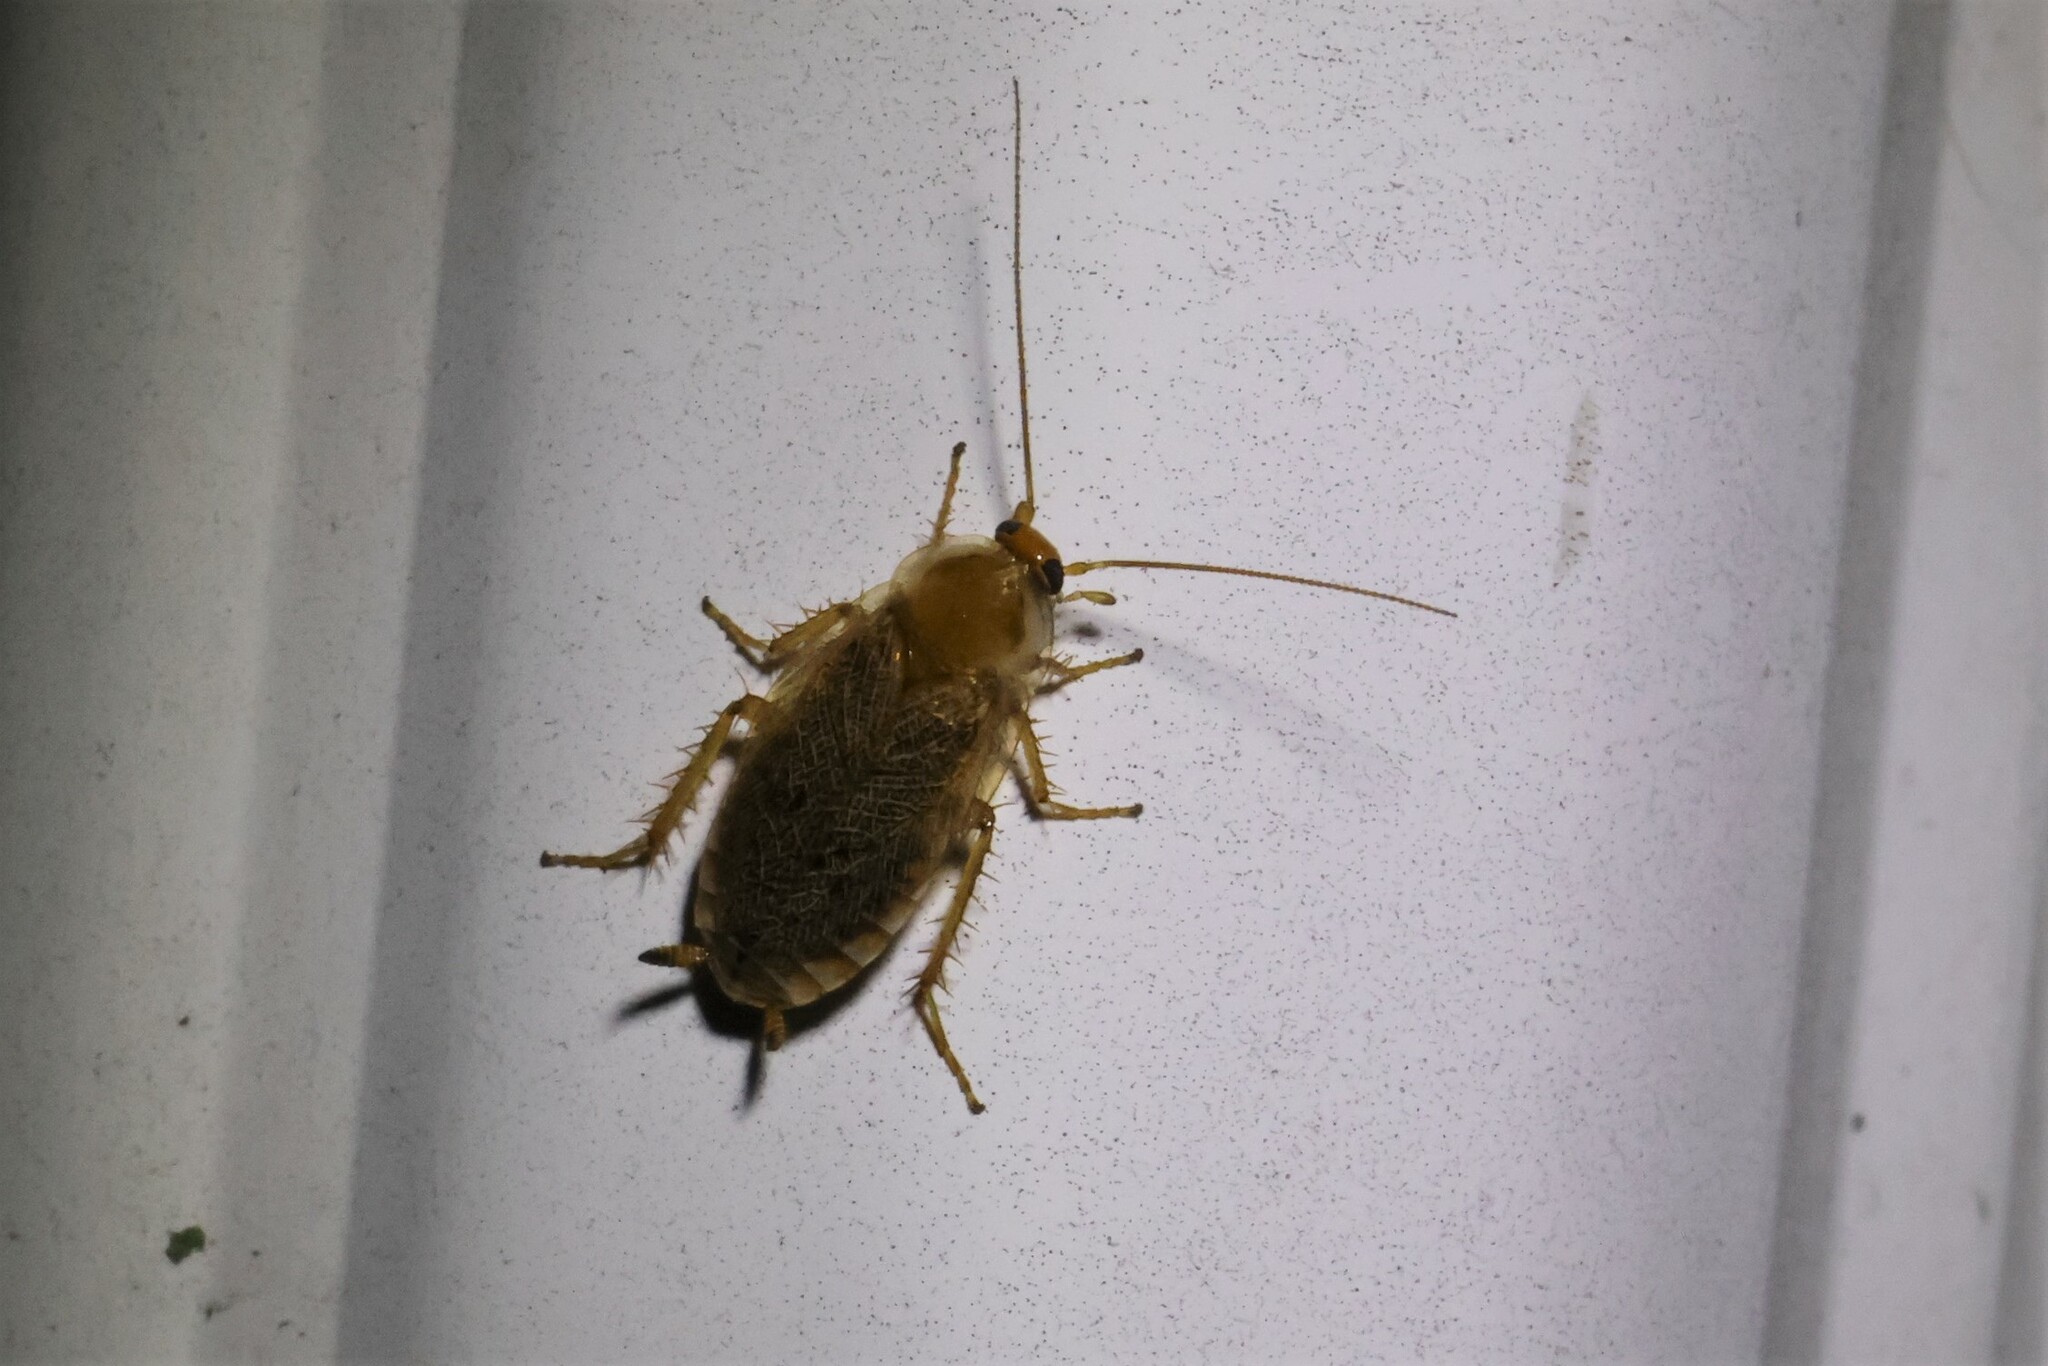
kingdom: Animalia
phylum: Arthropoda
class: Insecta
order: Blattodea
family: Ectobiidae
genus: Ectobius
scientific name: Ectobius lapponicus
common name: Dusky cockroach
